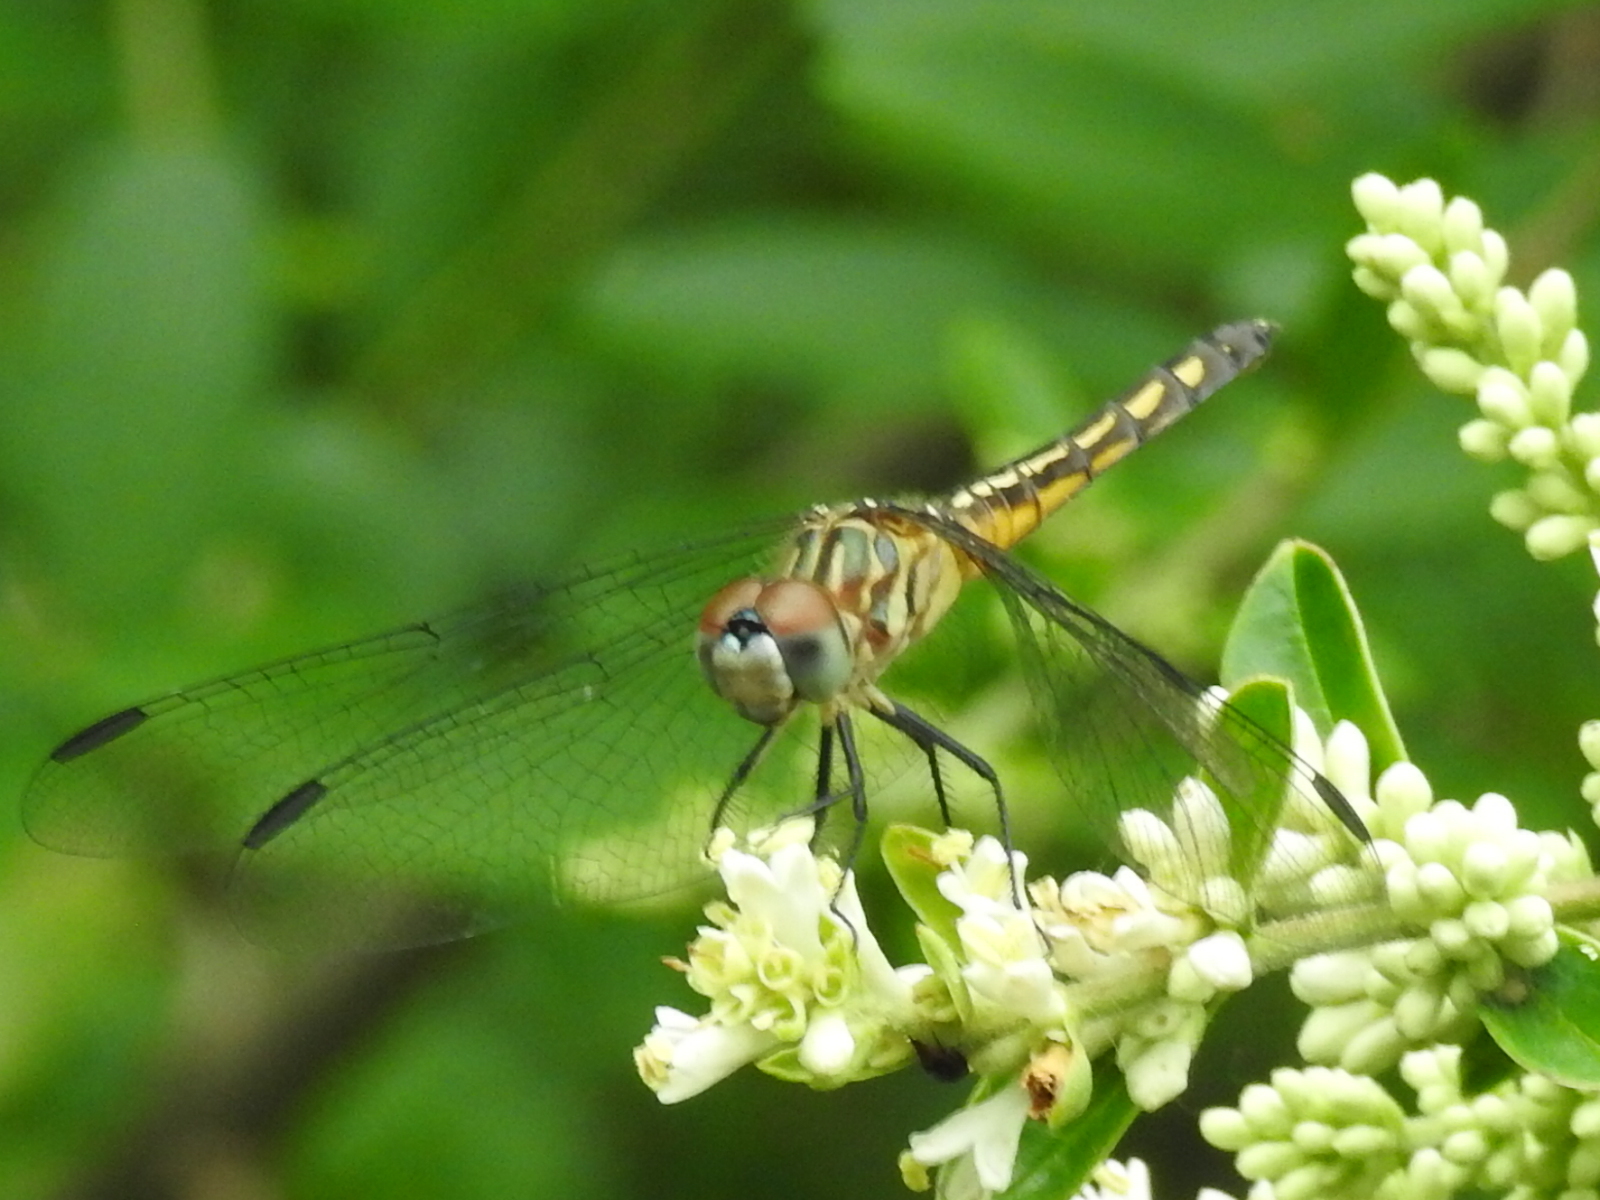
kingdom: Animalia
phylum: Arthropoda
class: Insecta
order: Odonata
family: Libellulidae
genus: Pachydiplax
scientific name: Pachydiplax longipennis
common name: Blue dasher
